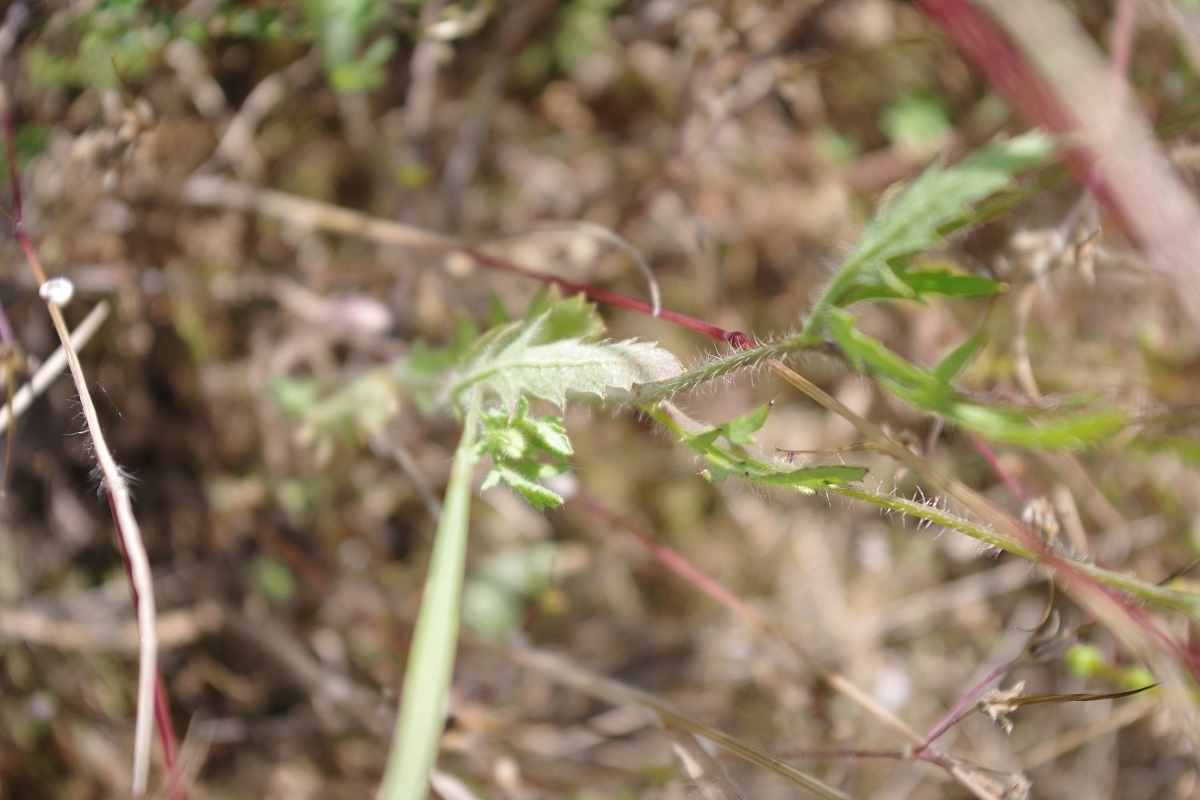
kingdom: Plantae
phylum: Tracheophyta
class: Magnoliopsida
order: Ranunculales
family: Papaveraceae
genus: Papaver
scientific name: Papaver rhoeas
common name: Corn poppy
